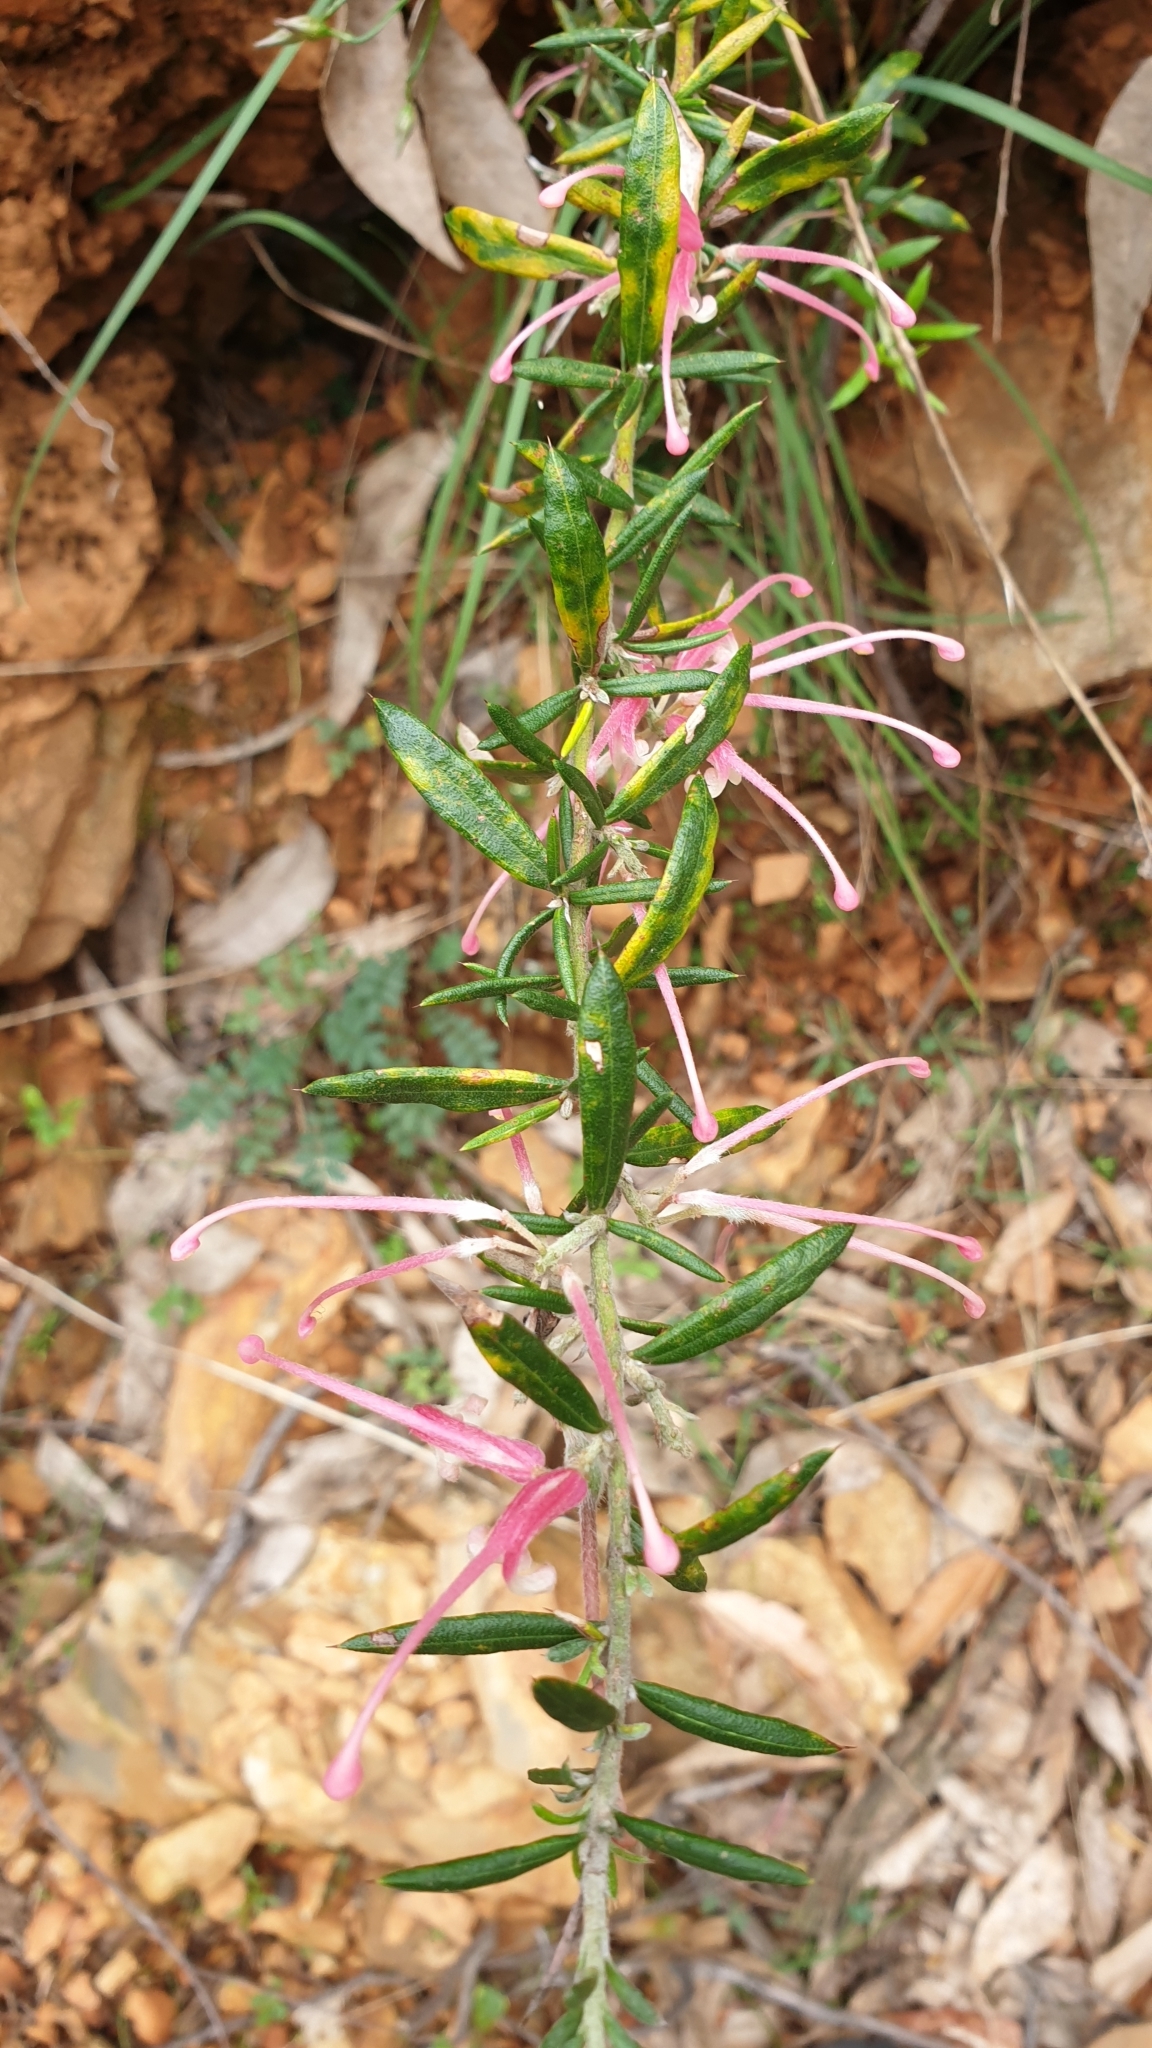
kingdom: Plantae
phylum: Tracheophyta
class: Magnoliopsida
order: Proteales
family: Proteaceae
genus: Grevillea
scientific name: Grevillea lavandulacea
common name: Lavender grevillea
